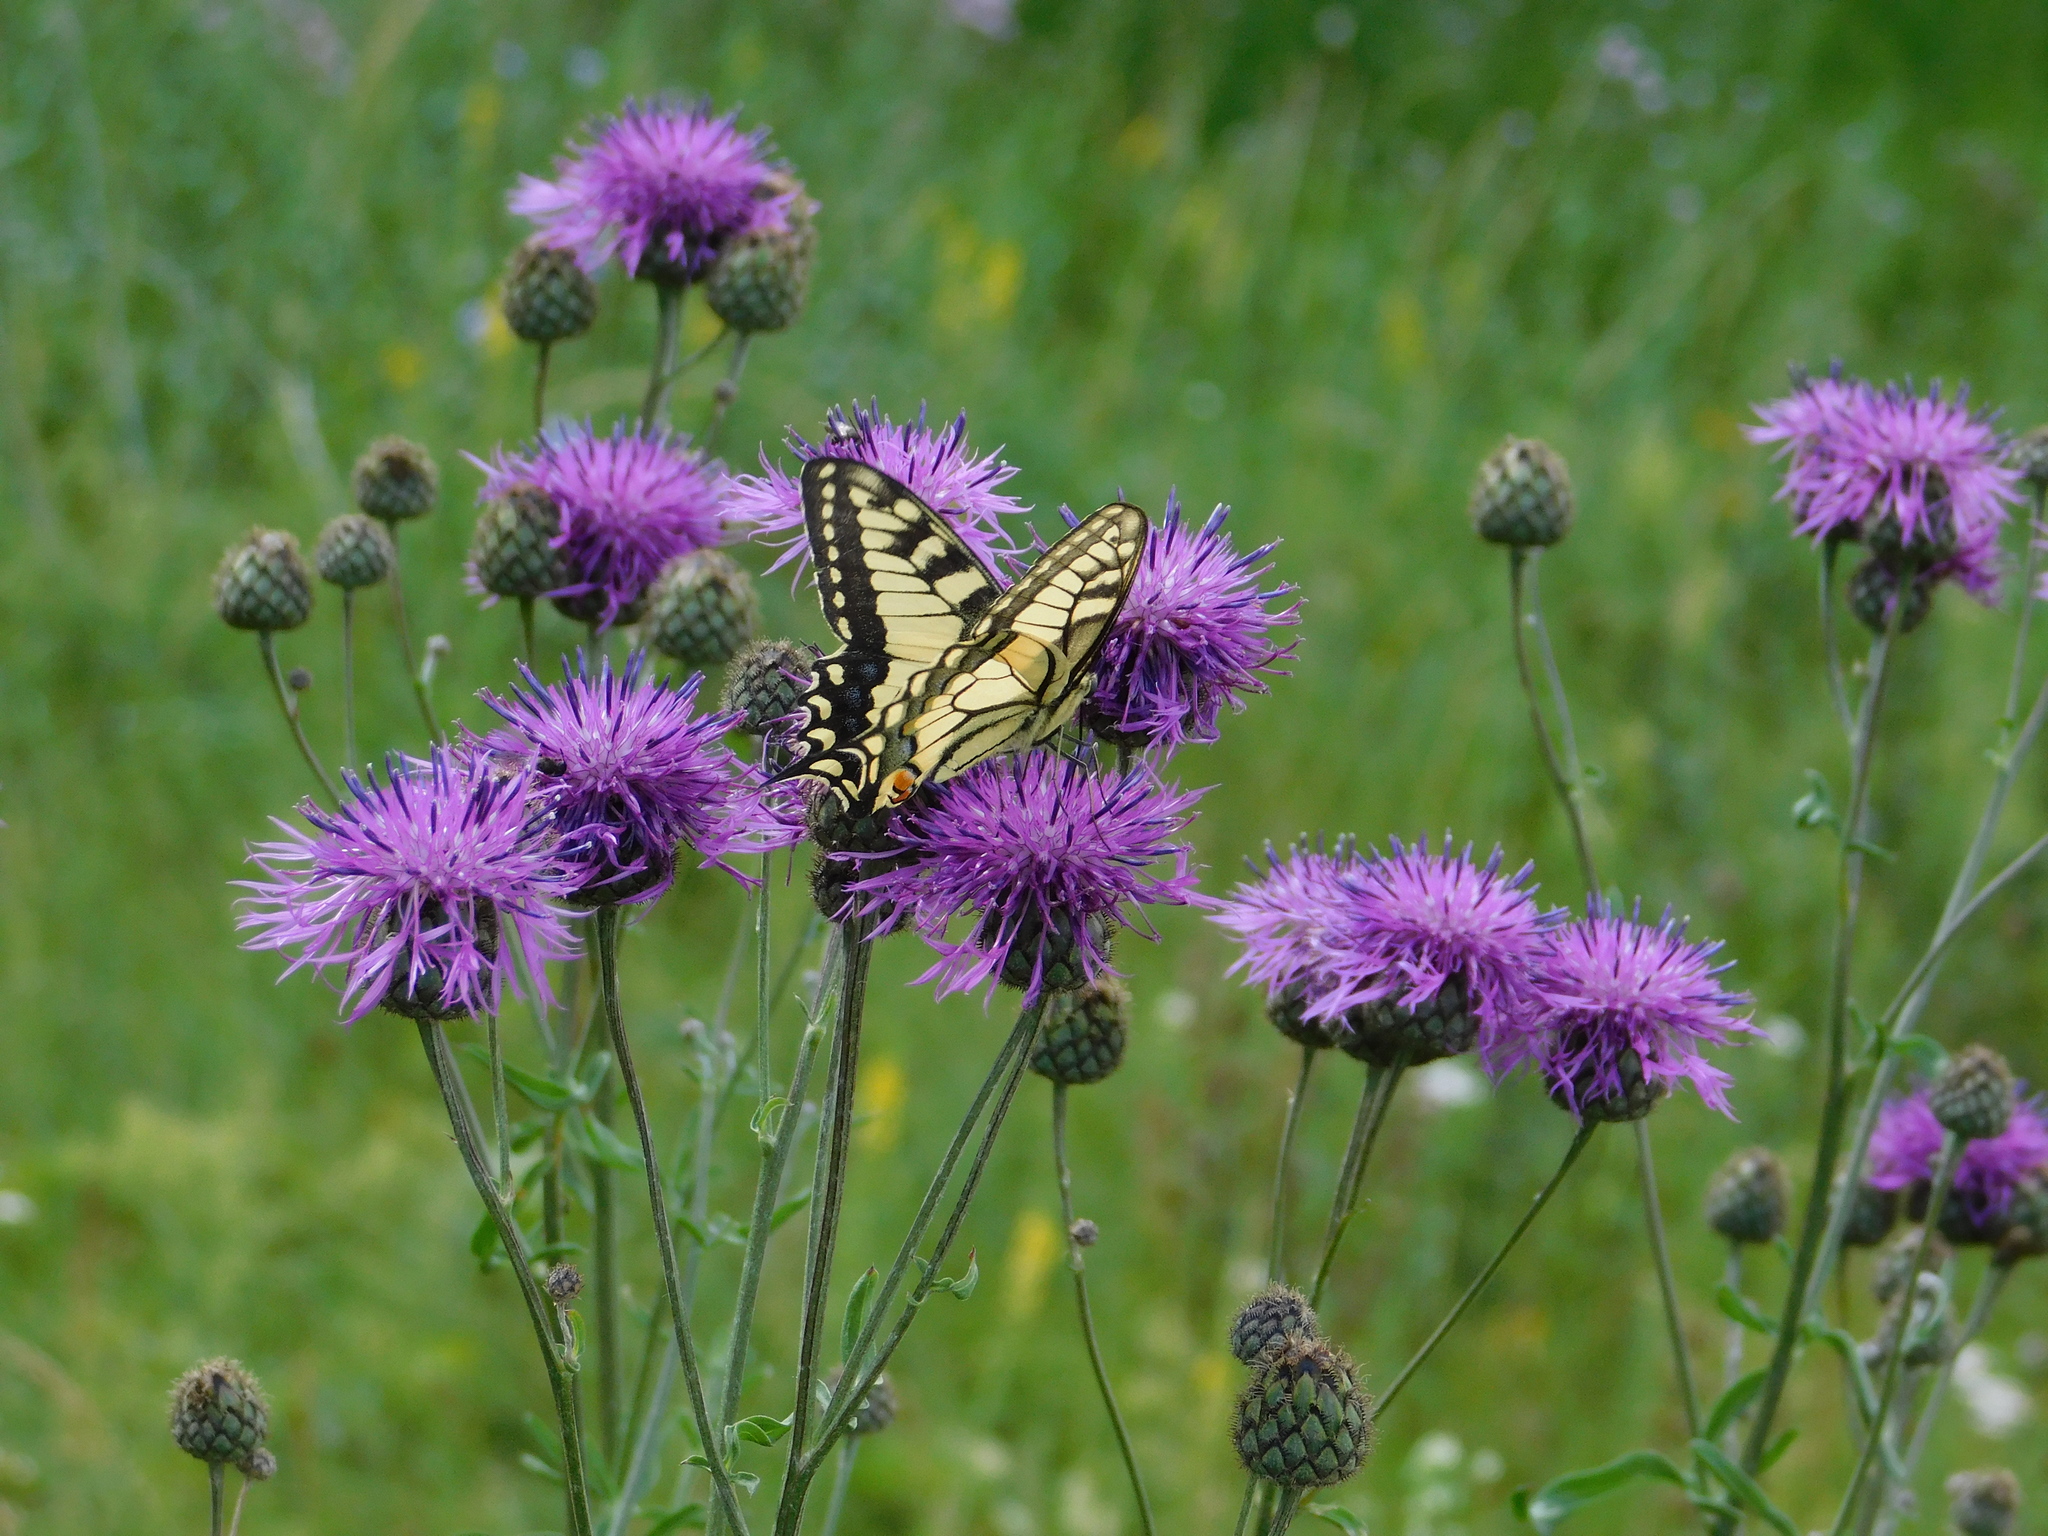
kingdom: Animalia
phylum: Arthropoda
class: Insecta
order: Lepidoptera
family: Papilionidae
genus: Papilio
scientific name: Papilio machaon
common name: Swallowtail
